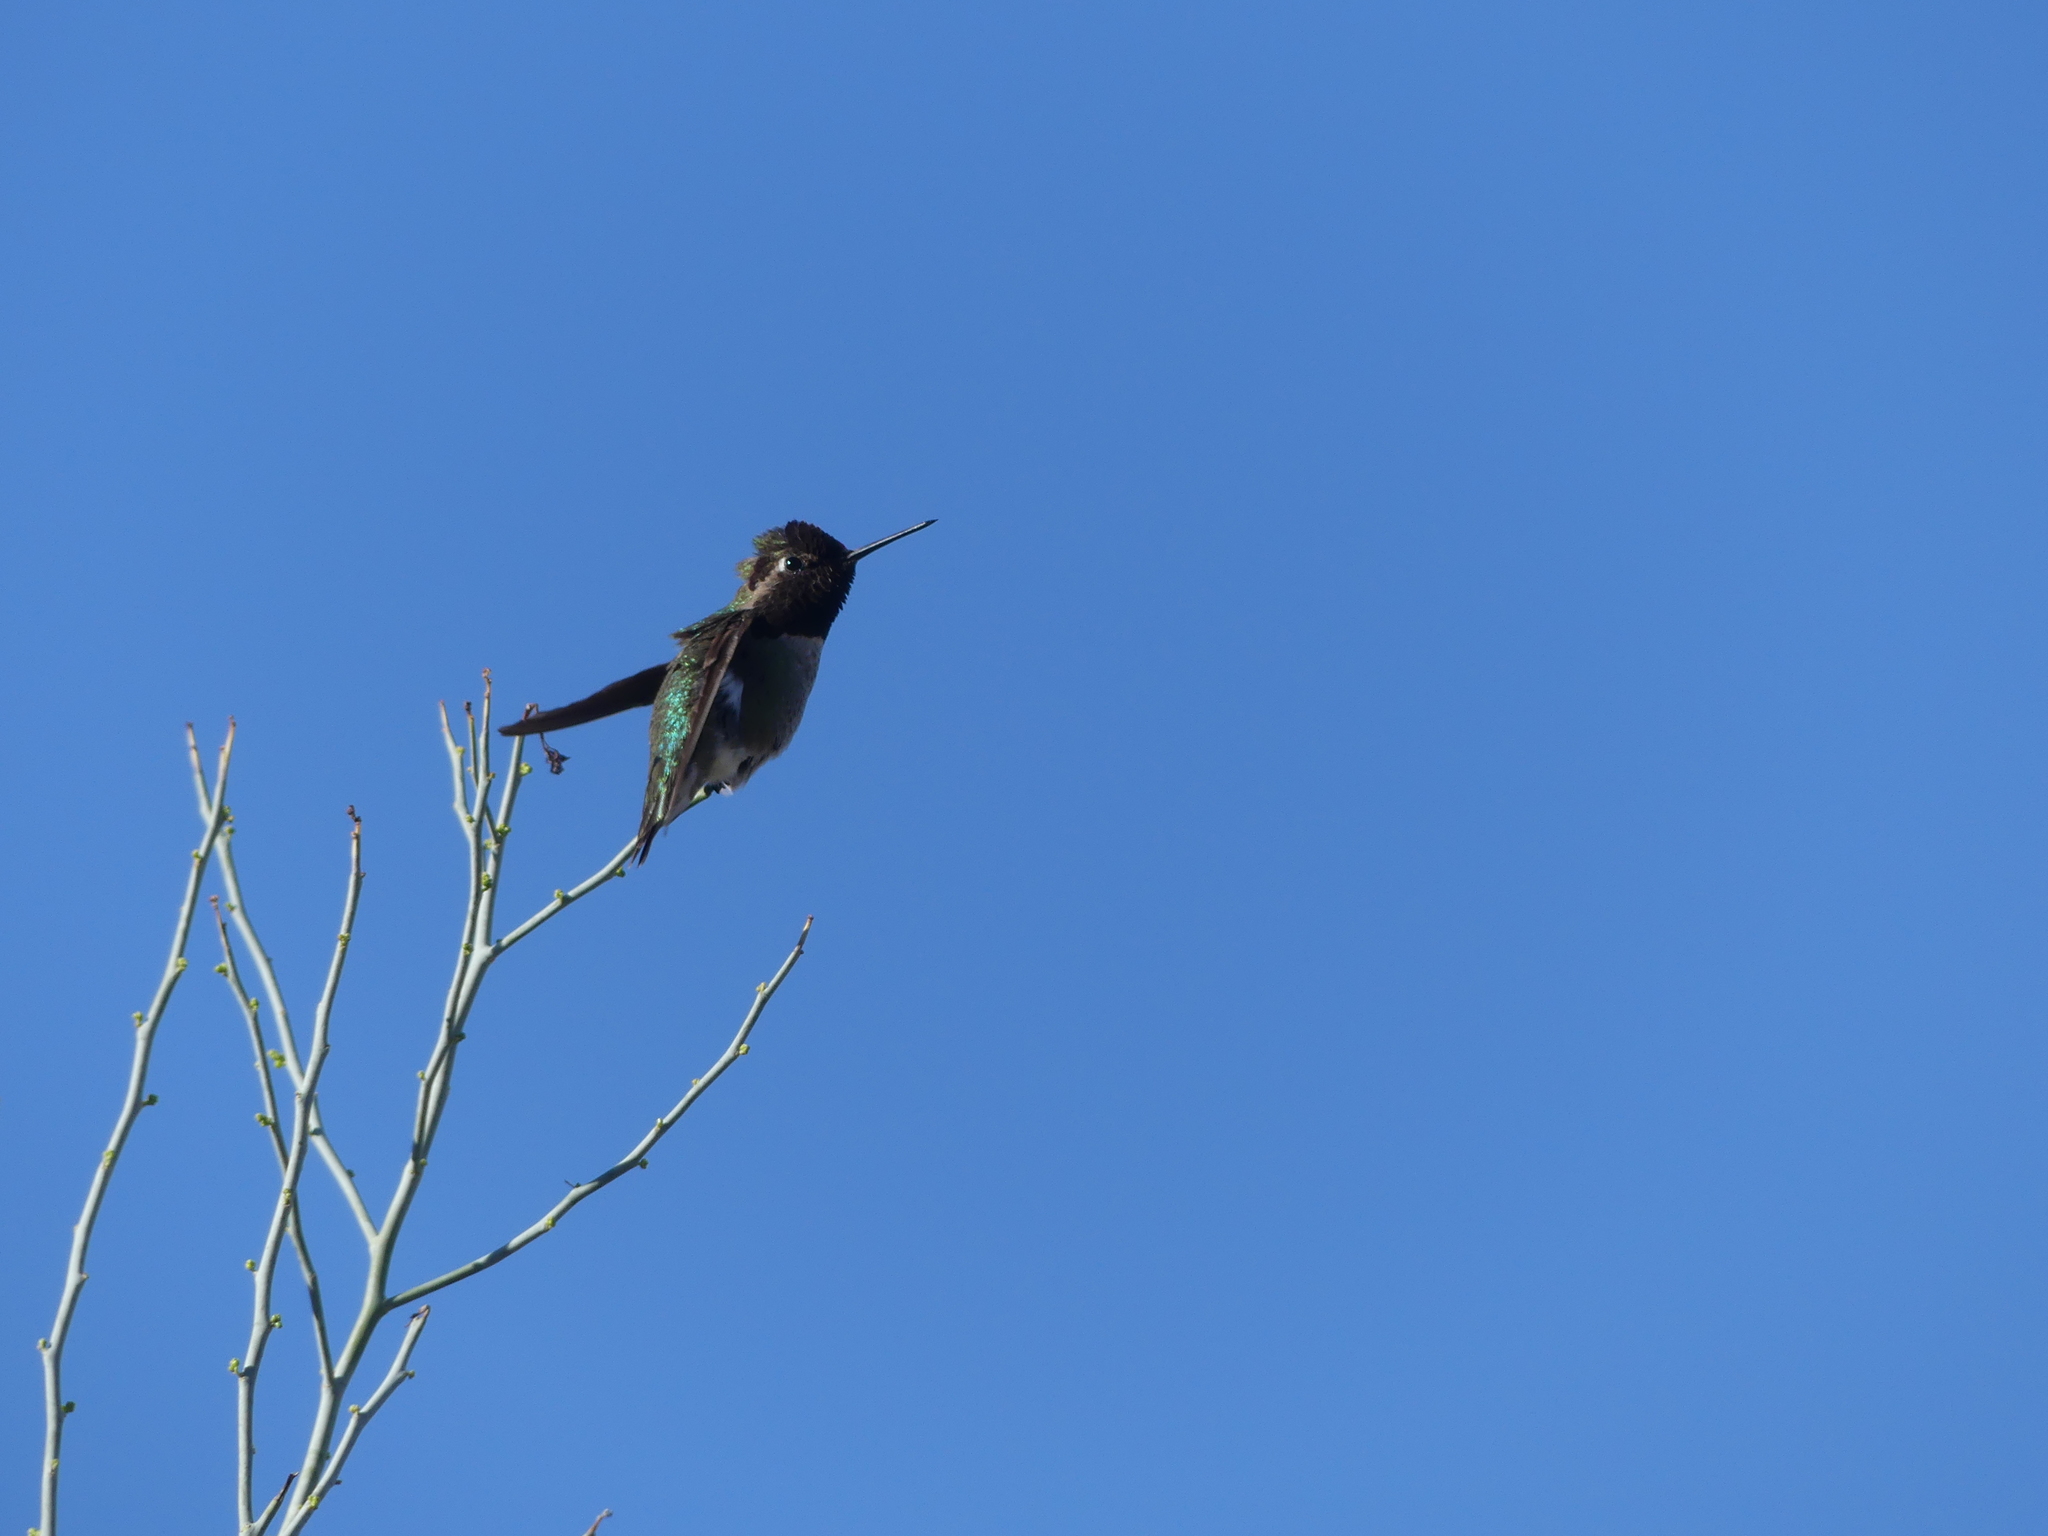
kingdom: Animalia
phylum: Chordata
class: Aves
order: Apodiformes
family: Trochilidae
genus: Calypte
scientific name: Calypte anna
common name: Anna's hummingbird
